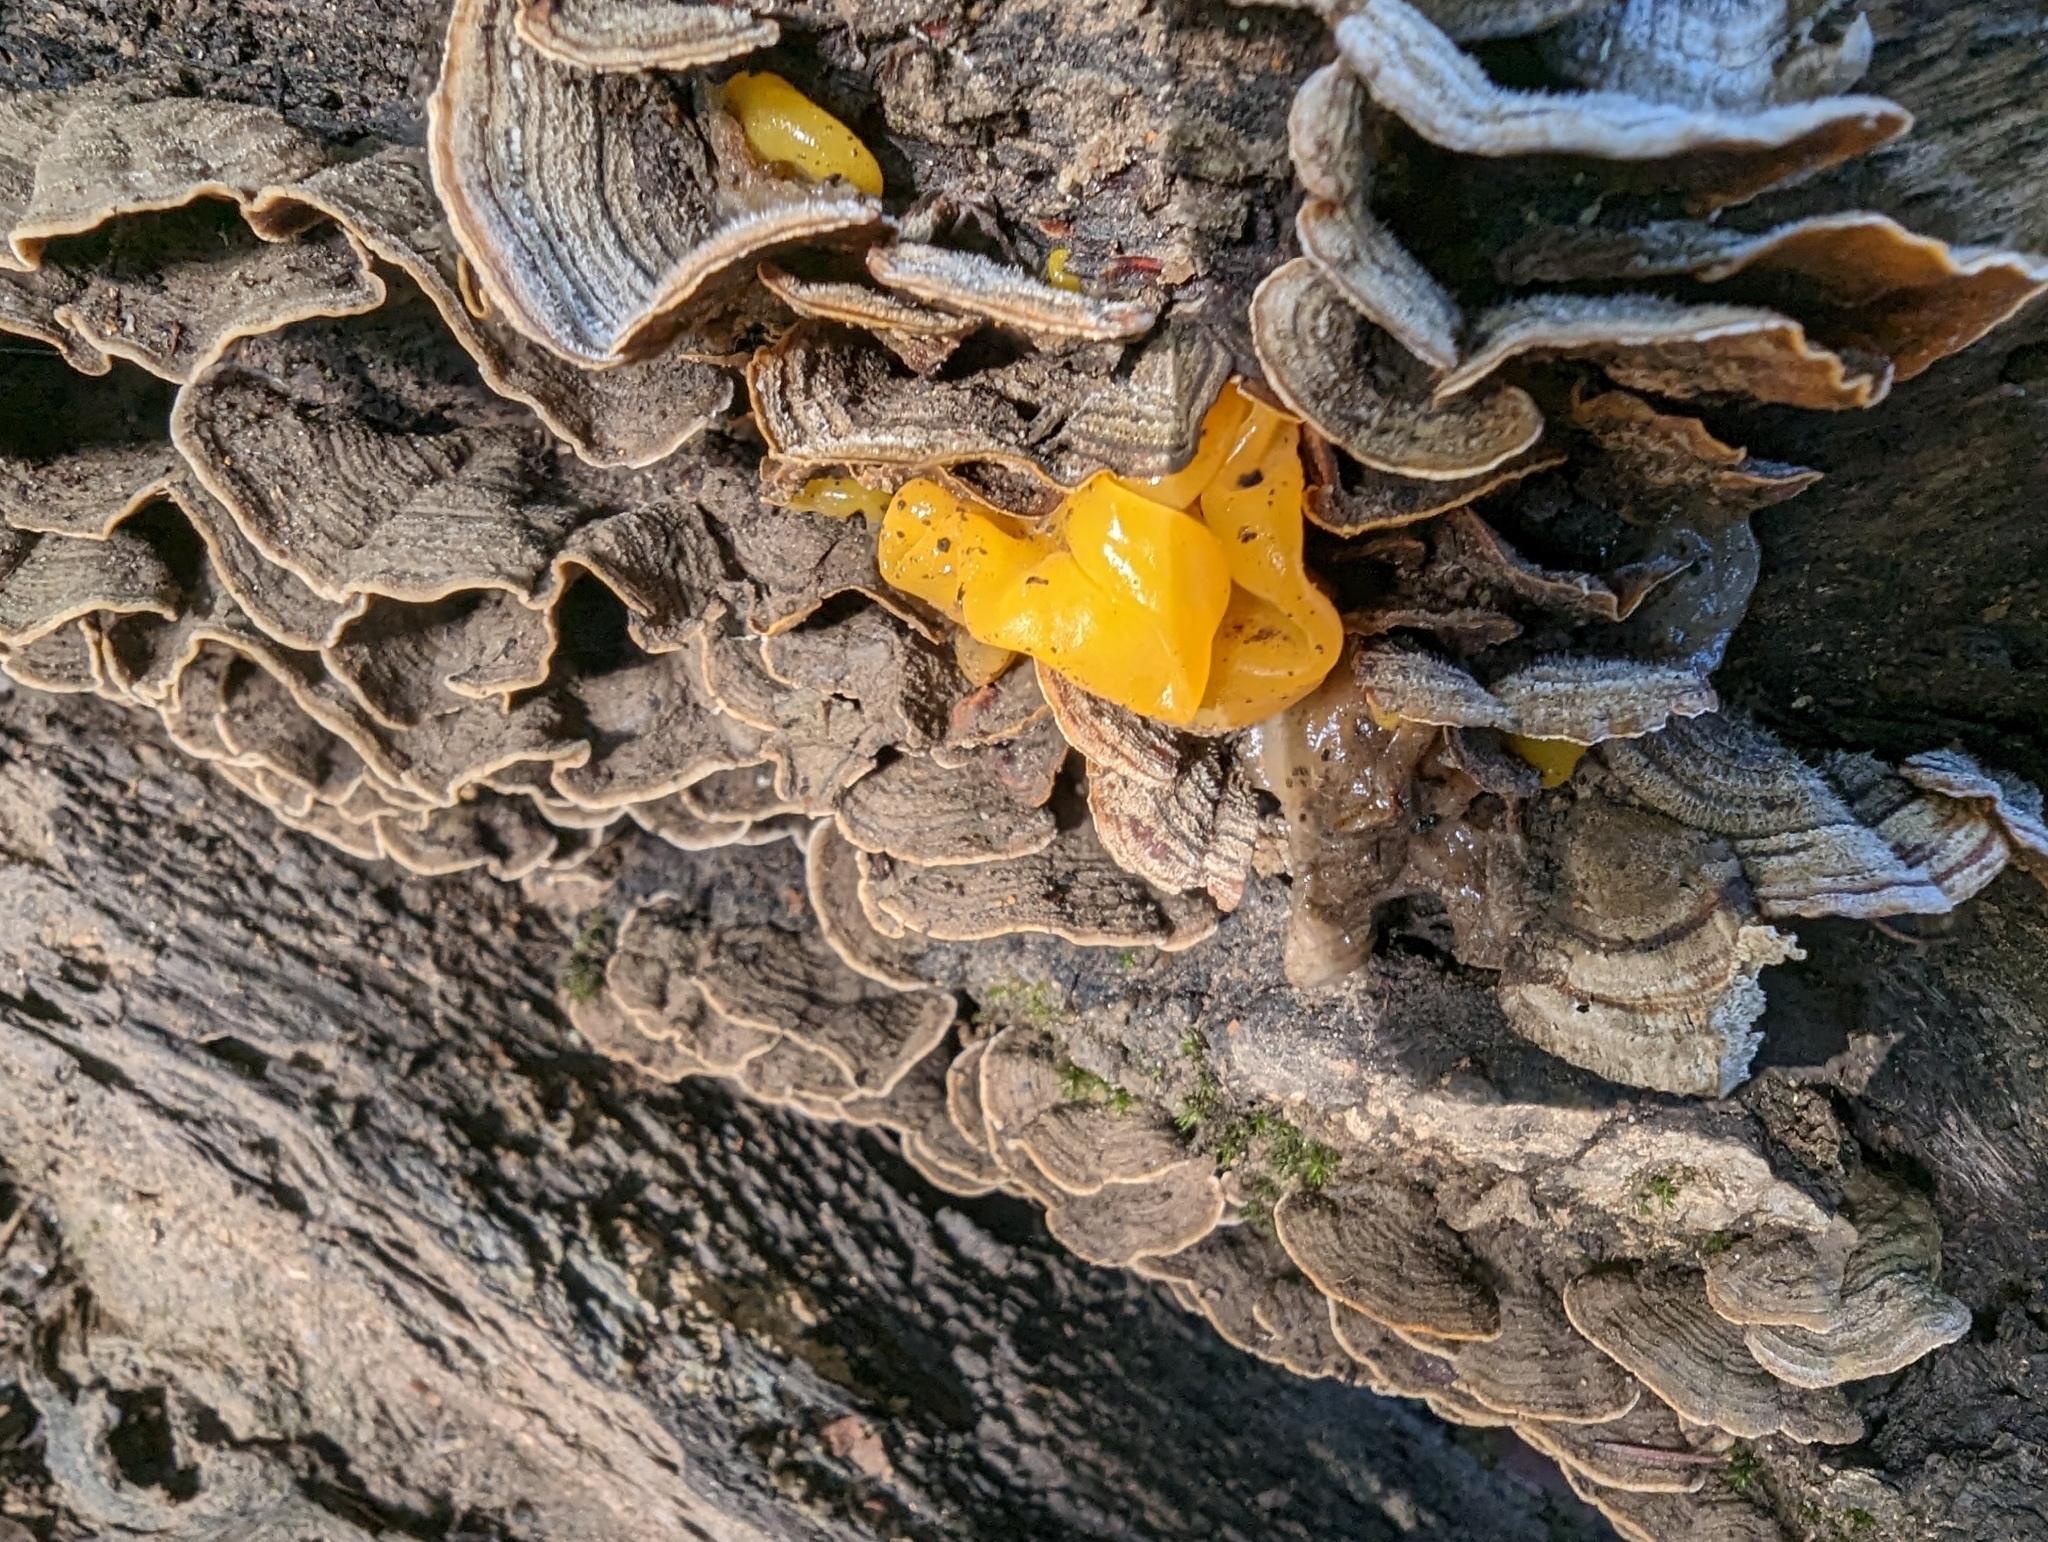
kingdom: Fungi
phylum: Basidiomycota
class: Tremellomycetes
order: Tremellales
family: Tremellaceae
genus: Tremella
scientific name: Tremella mesenterica
